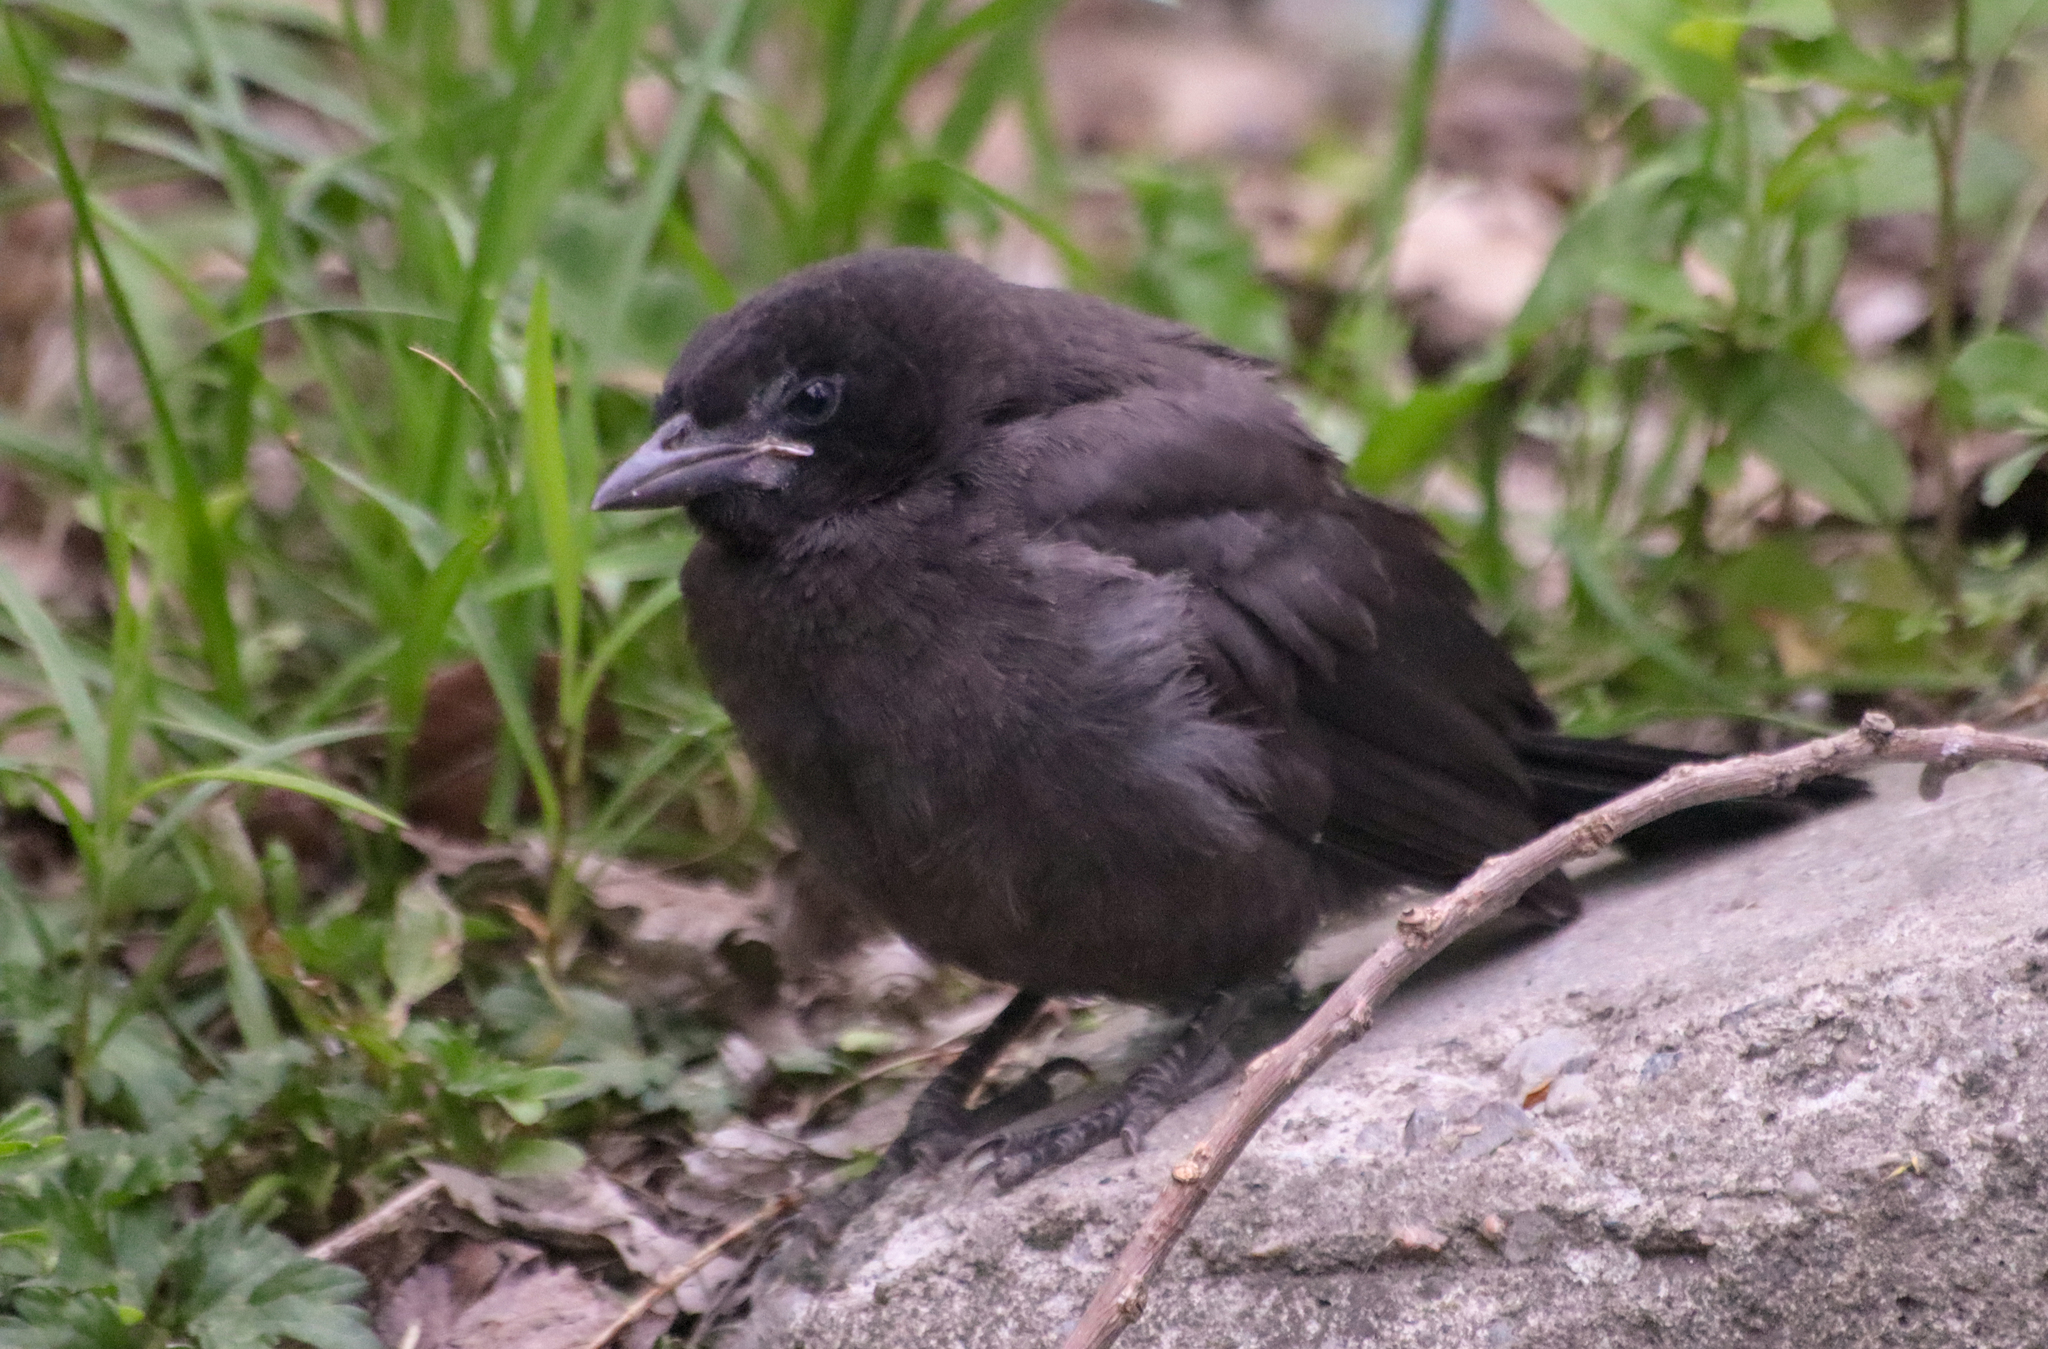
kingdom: Animalia
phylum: Chordata
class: Aves
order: Passeriformes
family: Icteridae
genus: Quiscalus
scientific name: Quiscalus quiscula
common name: Common grackle
